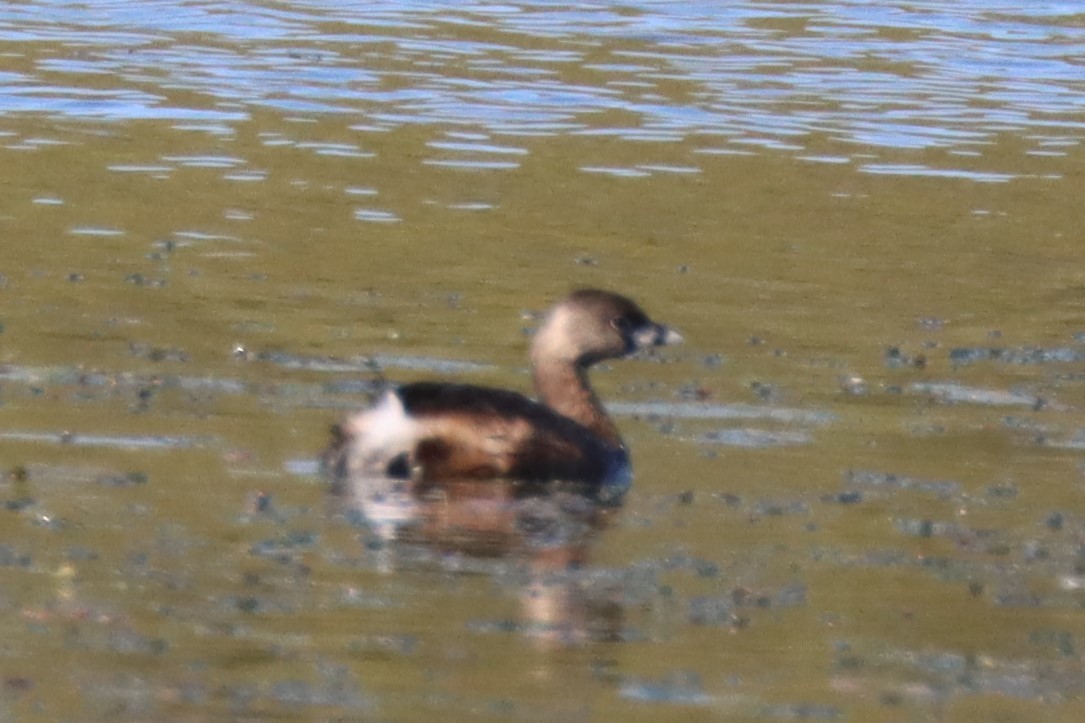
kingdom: Animalia
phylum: Chordata
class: Aves
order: Podicipediformes
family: Podicipedidae
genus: Podilymbus
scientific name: Podilymbus podiceps
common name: Pied-billed grebe
